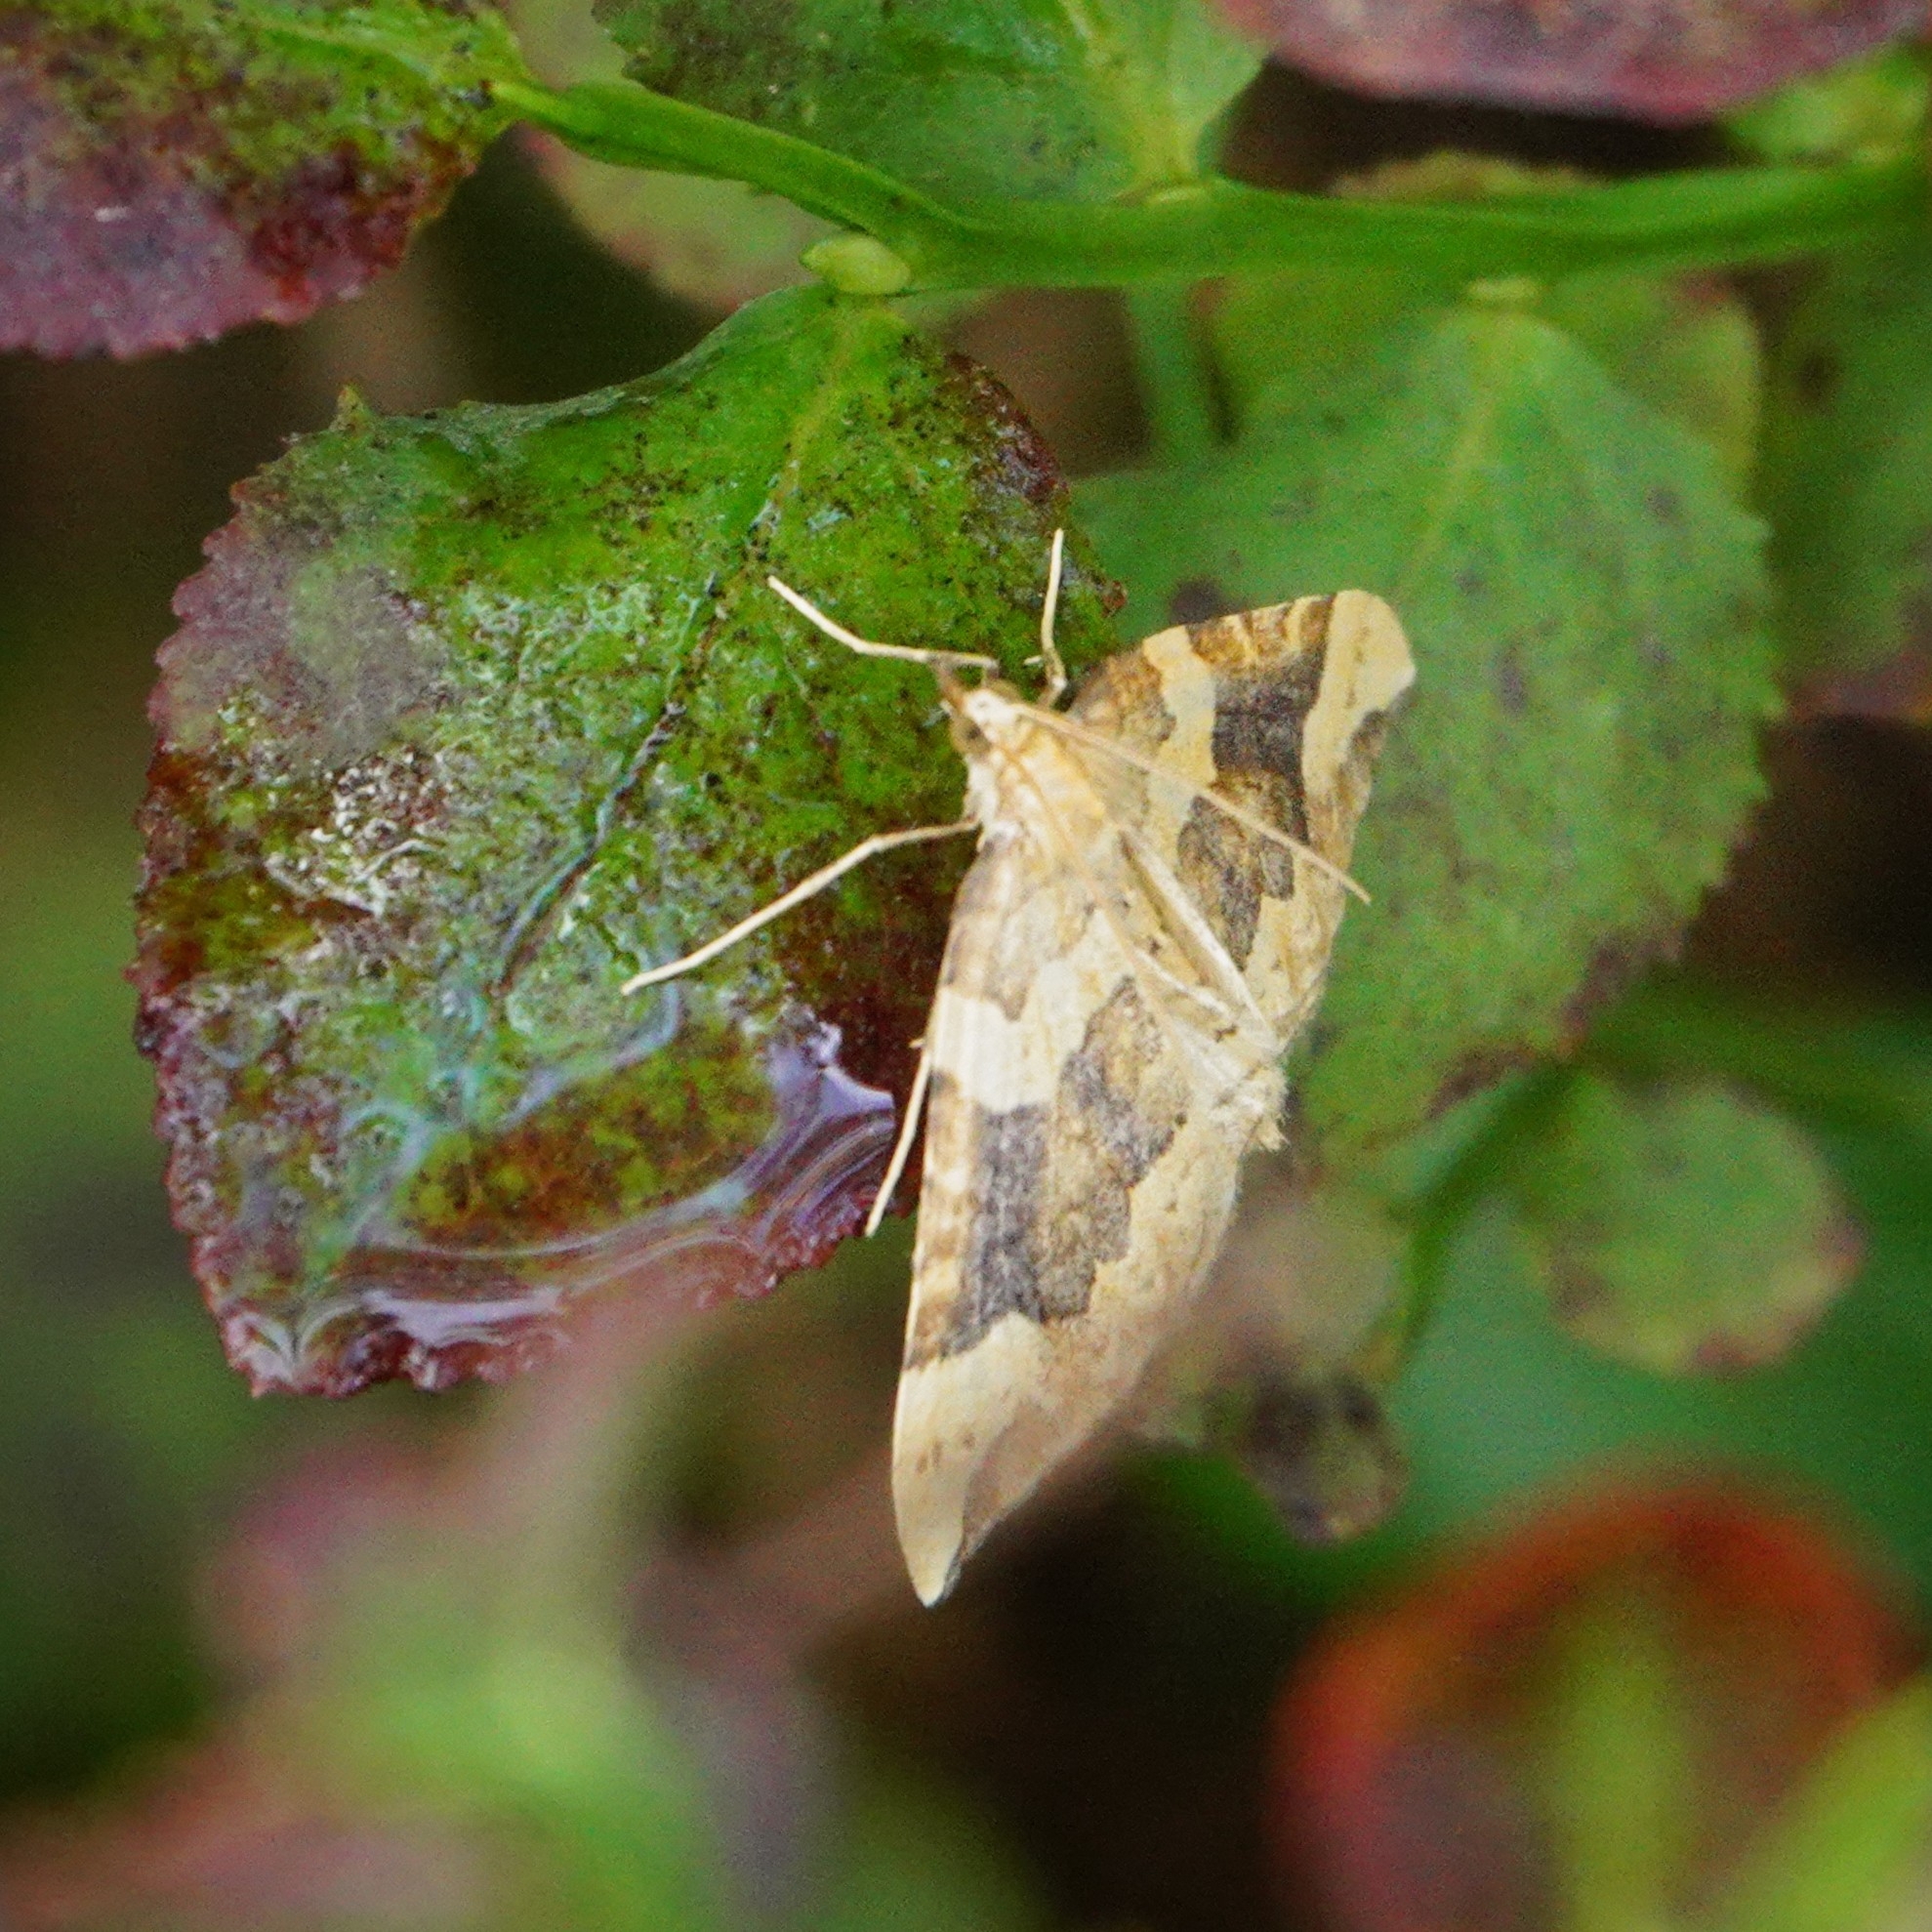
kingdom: Animalia
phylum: Arthropoda
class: Insecta
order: Lepidoptera
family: Geometridae
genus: Eulithis
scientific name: Eulithis populata
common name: Northern spinach
